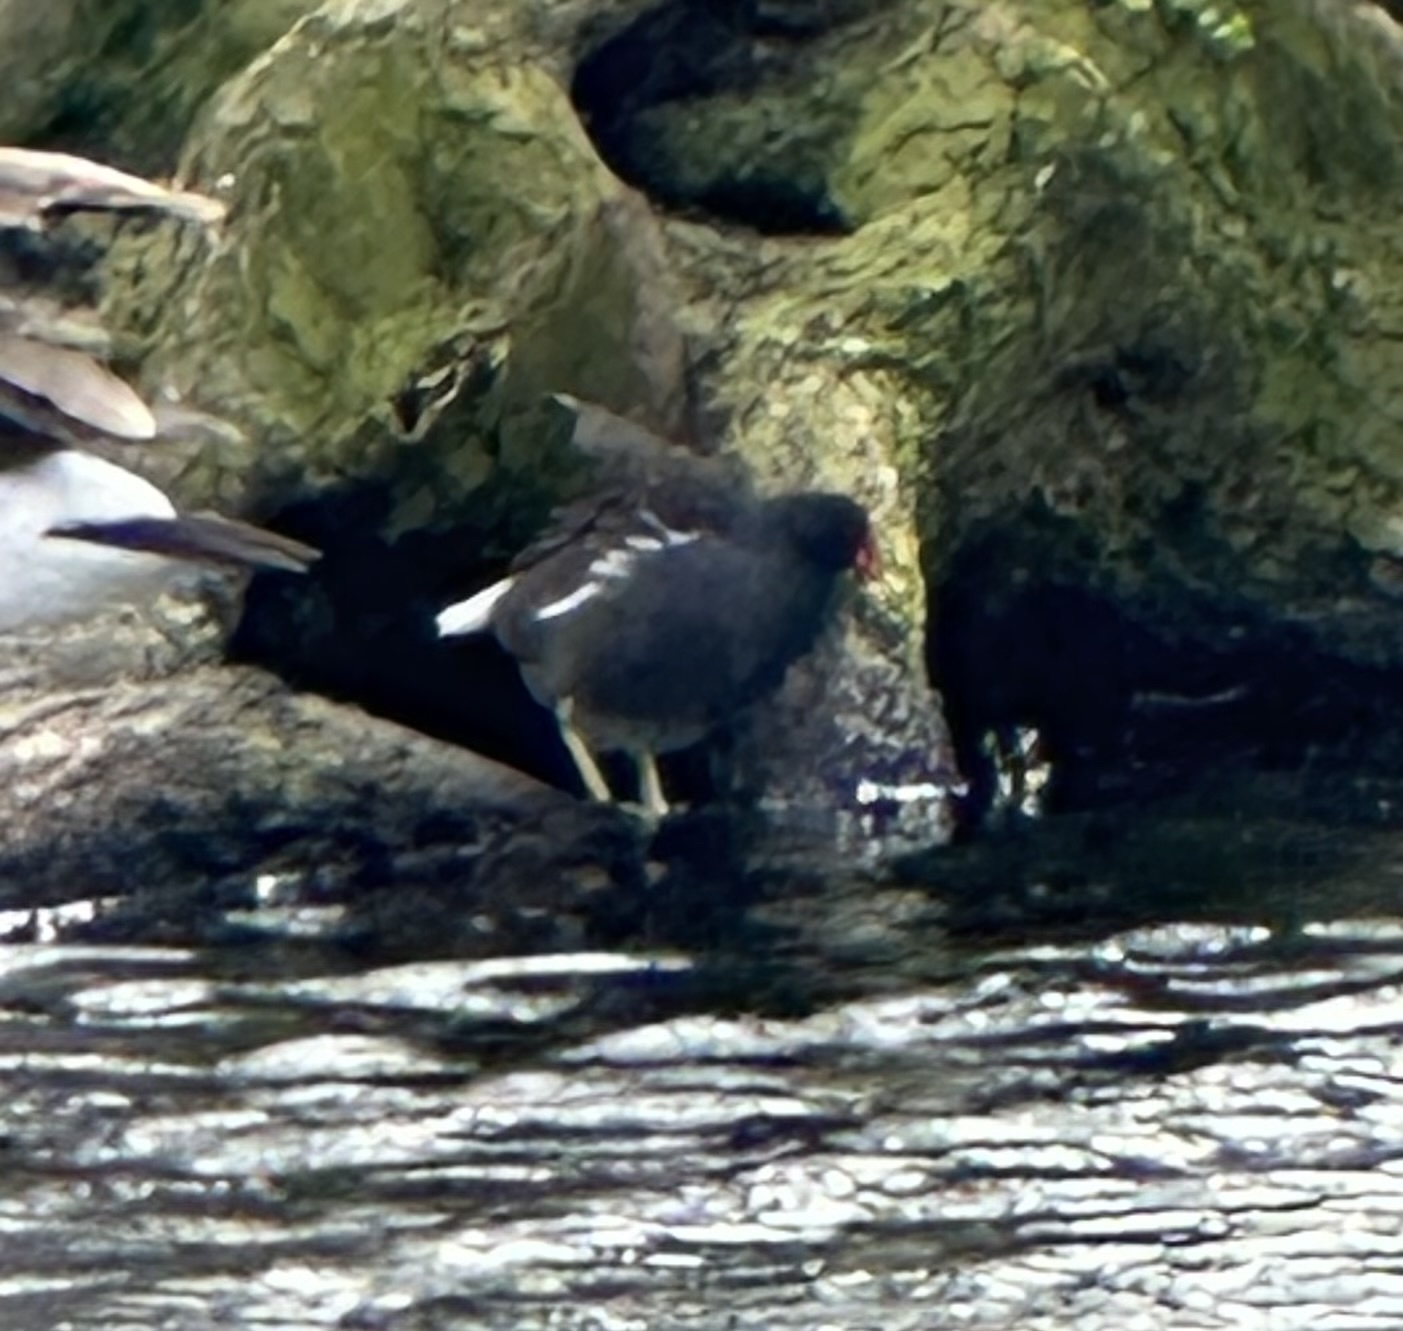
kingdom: Animalia
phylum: Chordata
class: Aves
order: Gruiformes
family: Rallidae
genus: Gallinula
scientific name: Gallinula chloropus
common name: Common moorhen
